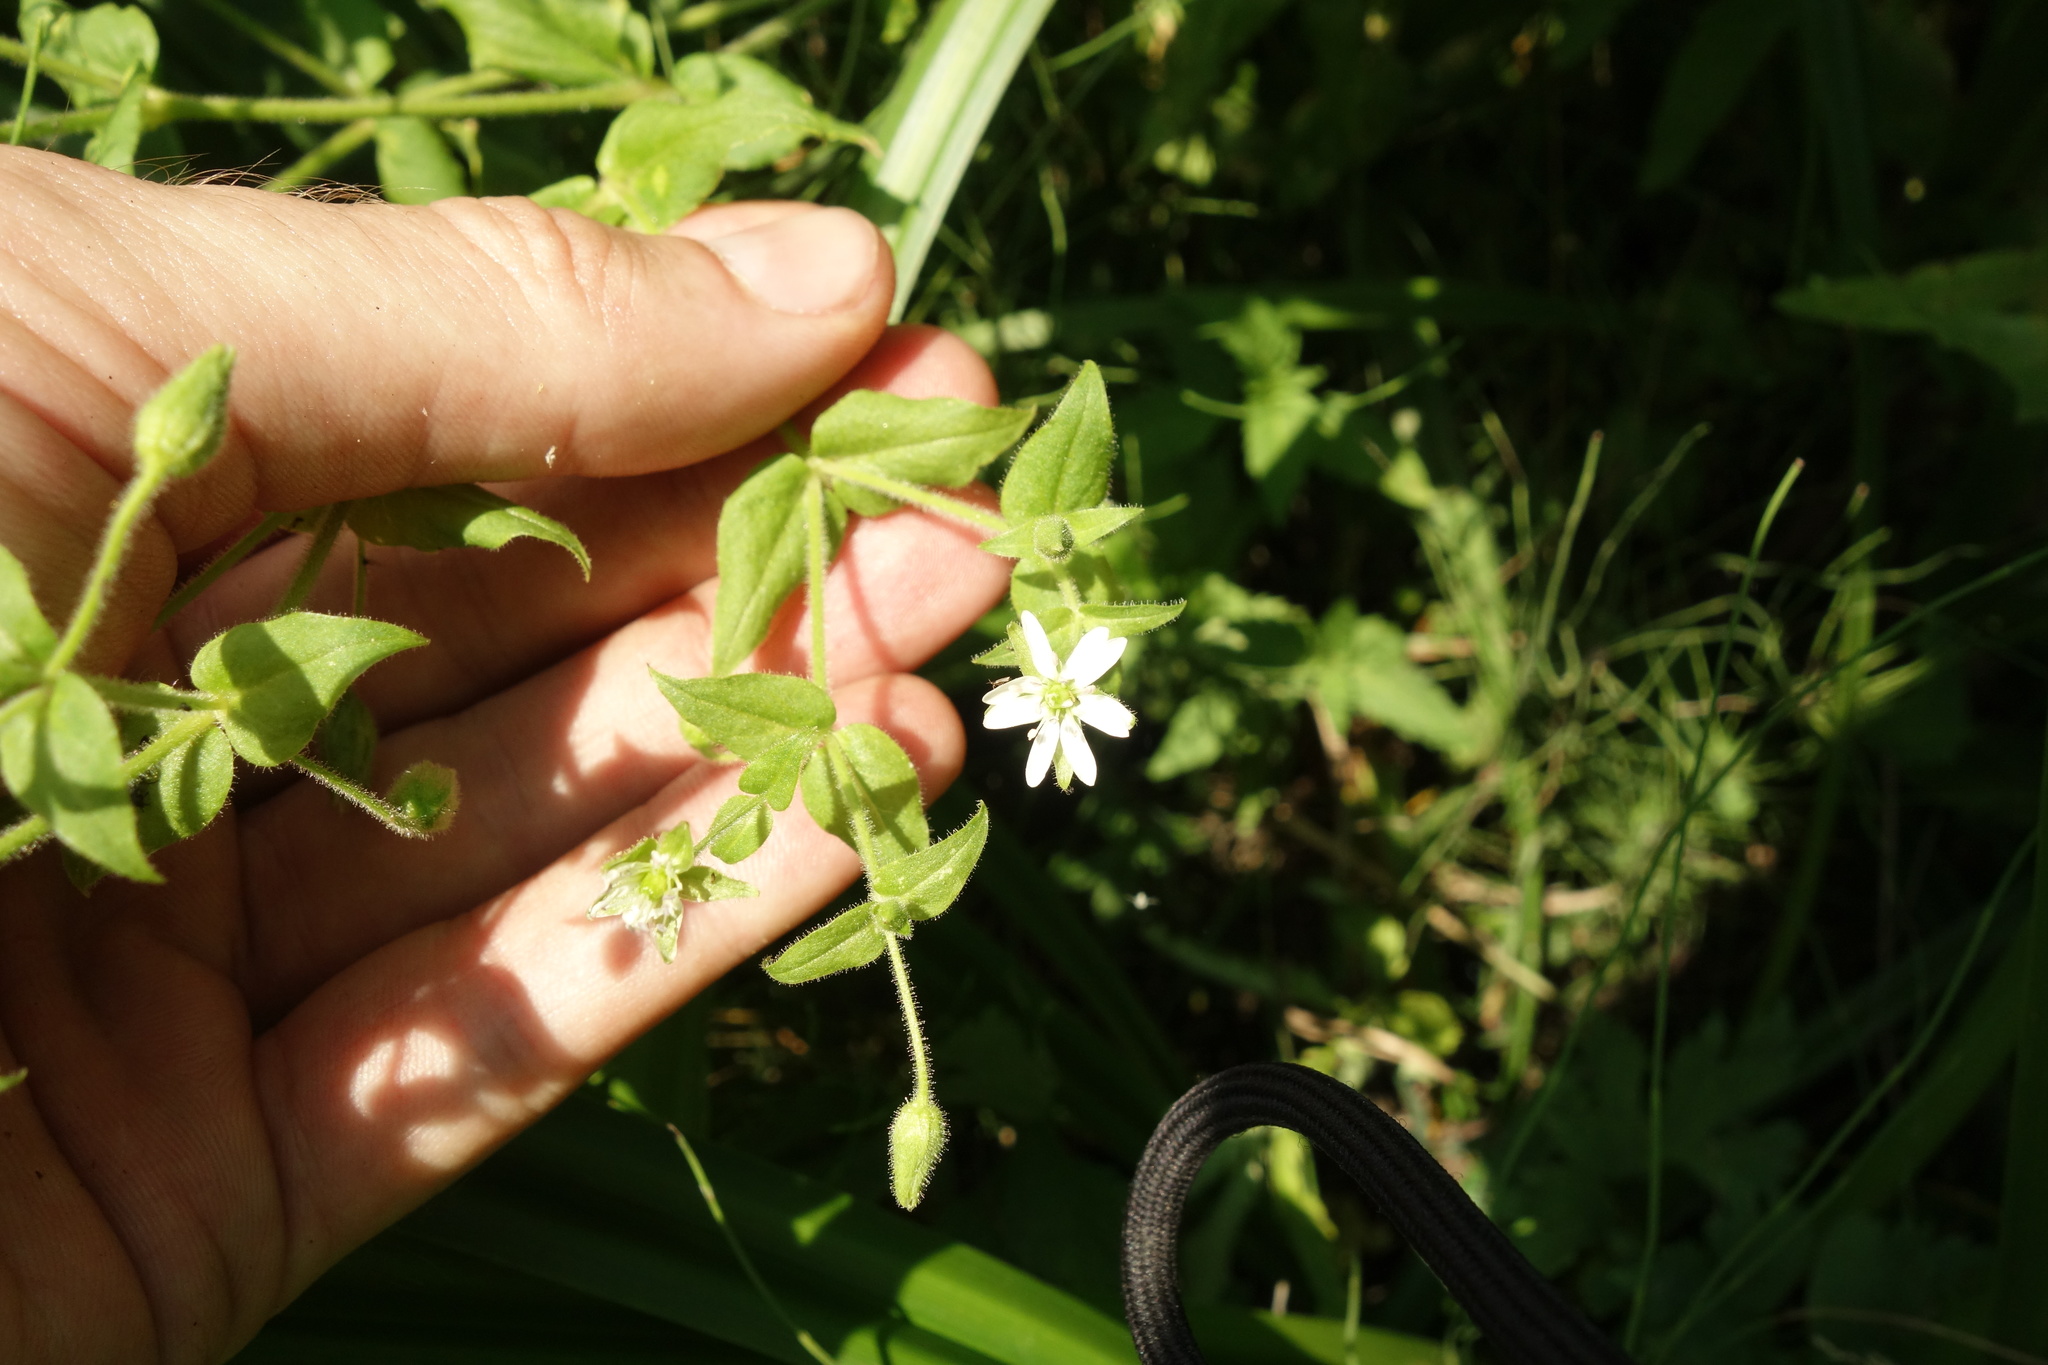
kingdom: Plantae
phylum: Tracheophyta
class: Magnoliopsida
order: Caryophyllales
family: Caryophyllaceae
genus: Stellaria
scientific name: Stellaria aquatica
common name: Water chickweed
